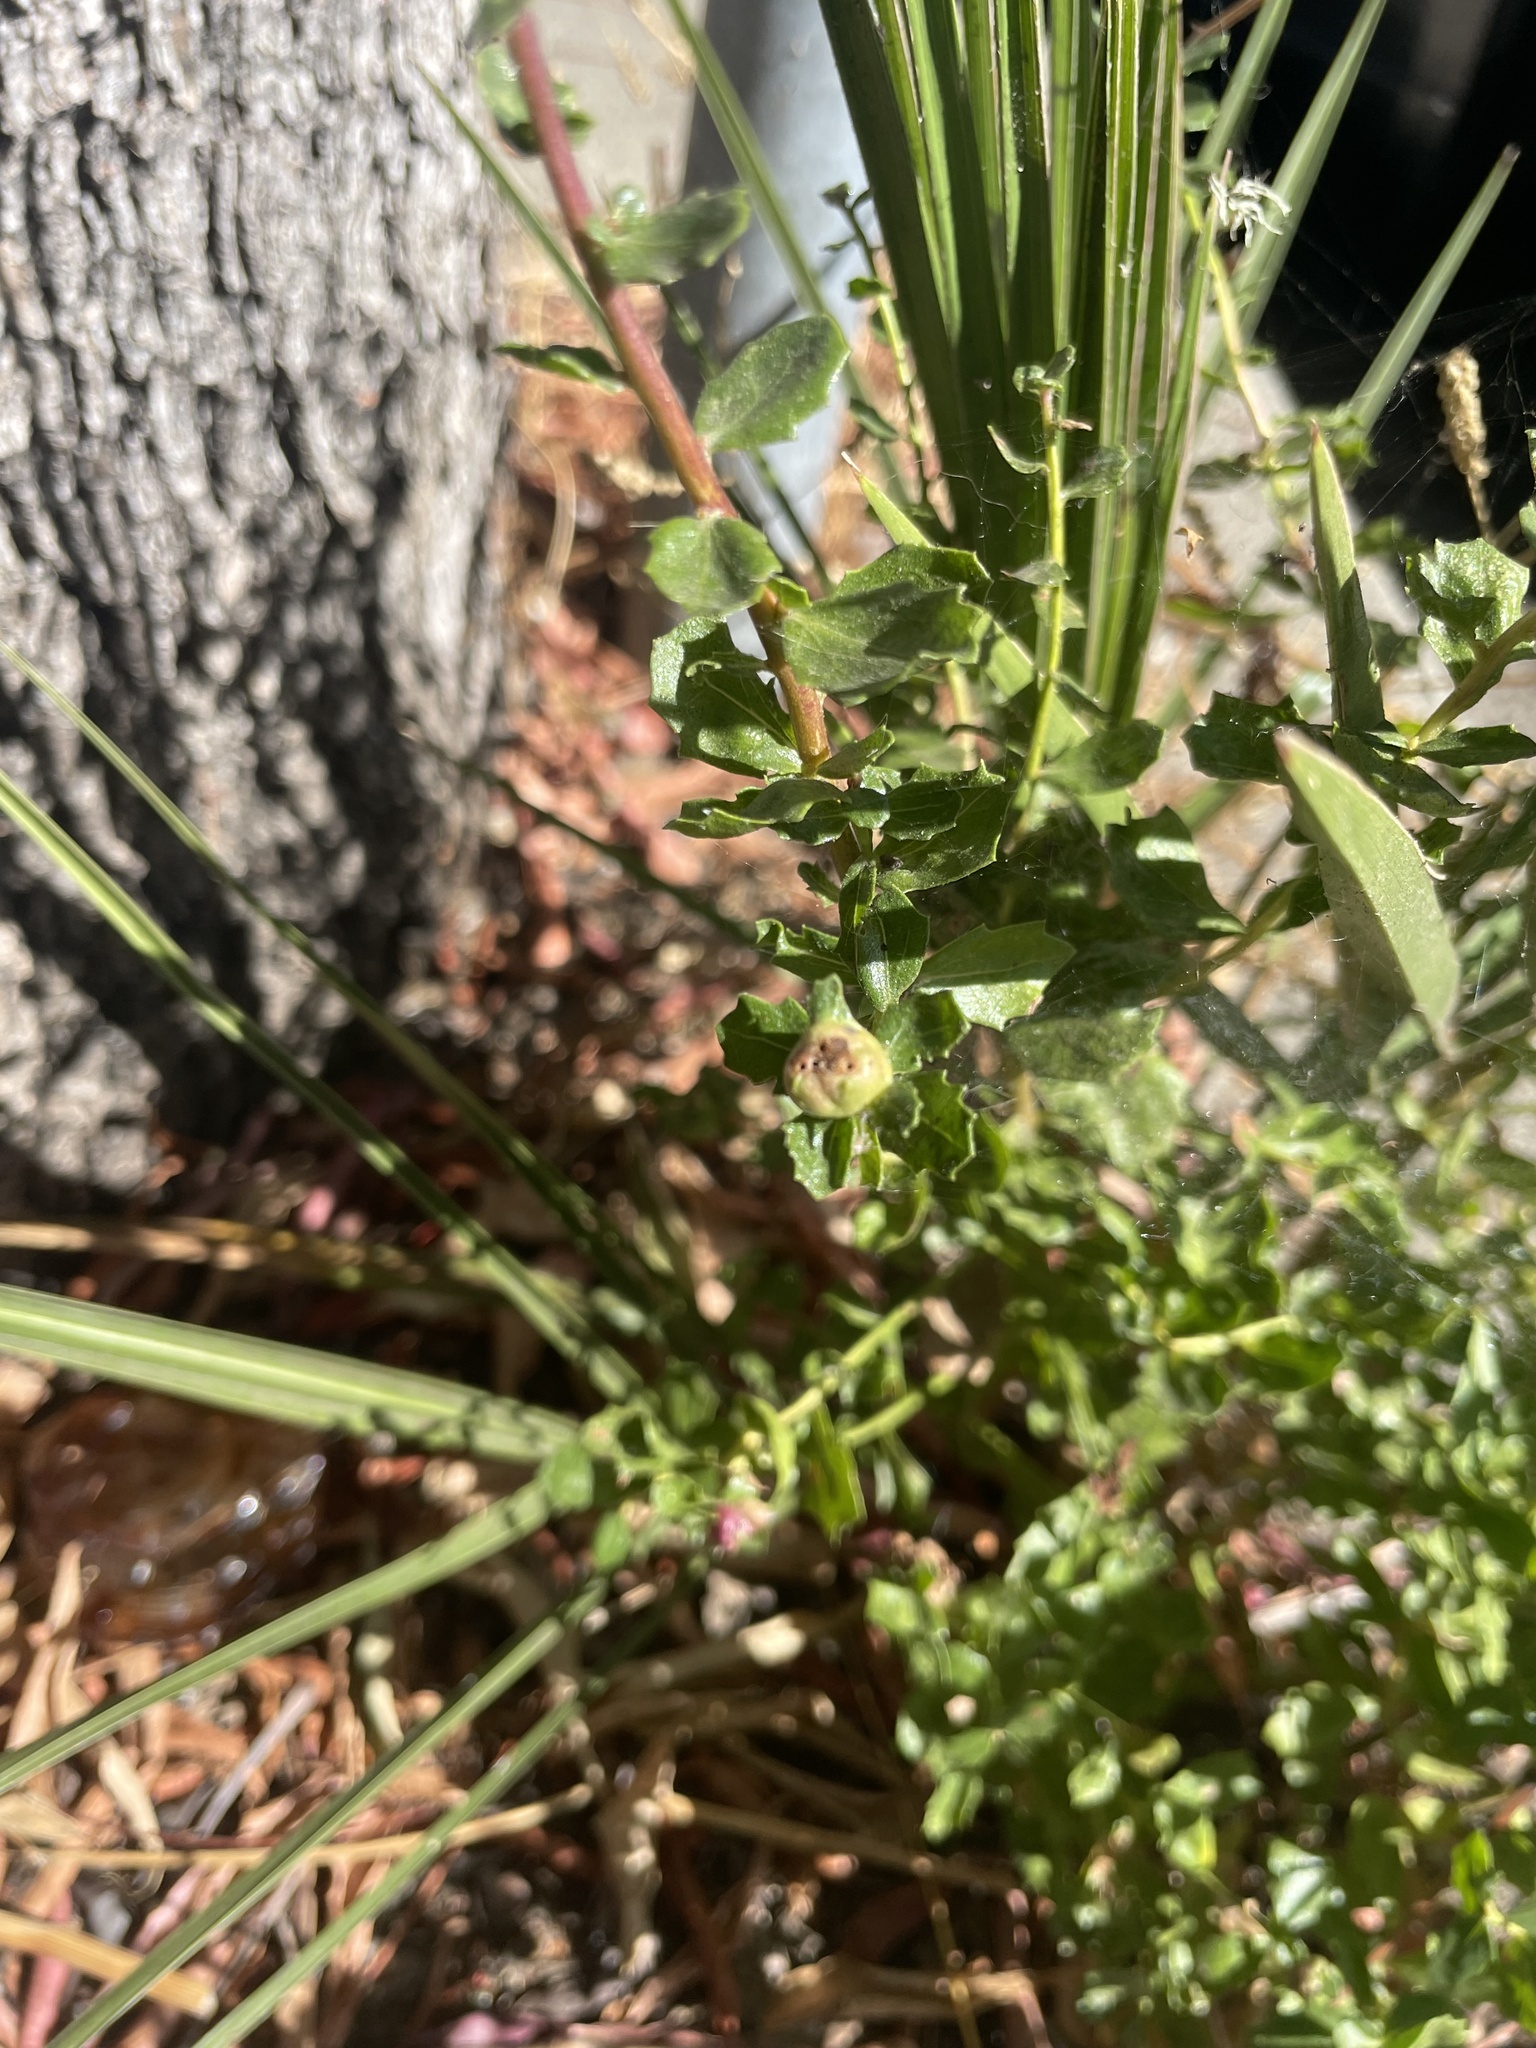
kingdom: Animalia
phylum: Arthropoda
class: Insecta
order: Diptera
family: Cecidomyiidae
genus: Rhopalomyia
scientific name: Rhopalomyia californica
